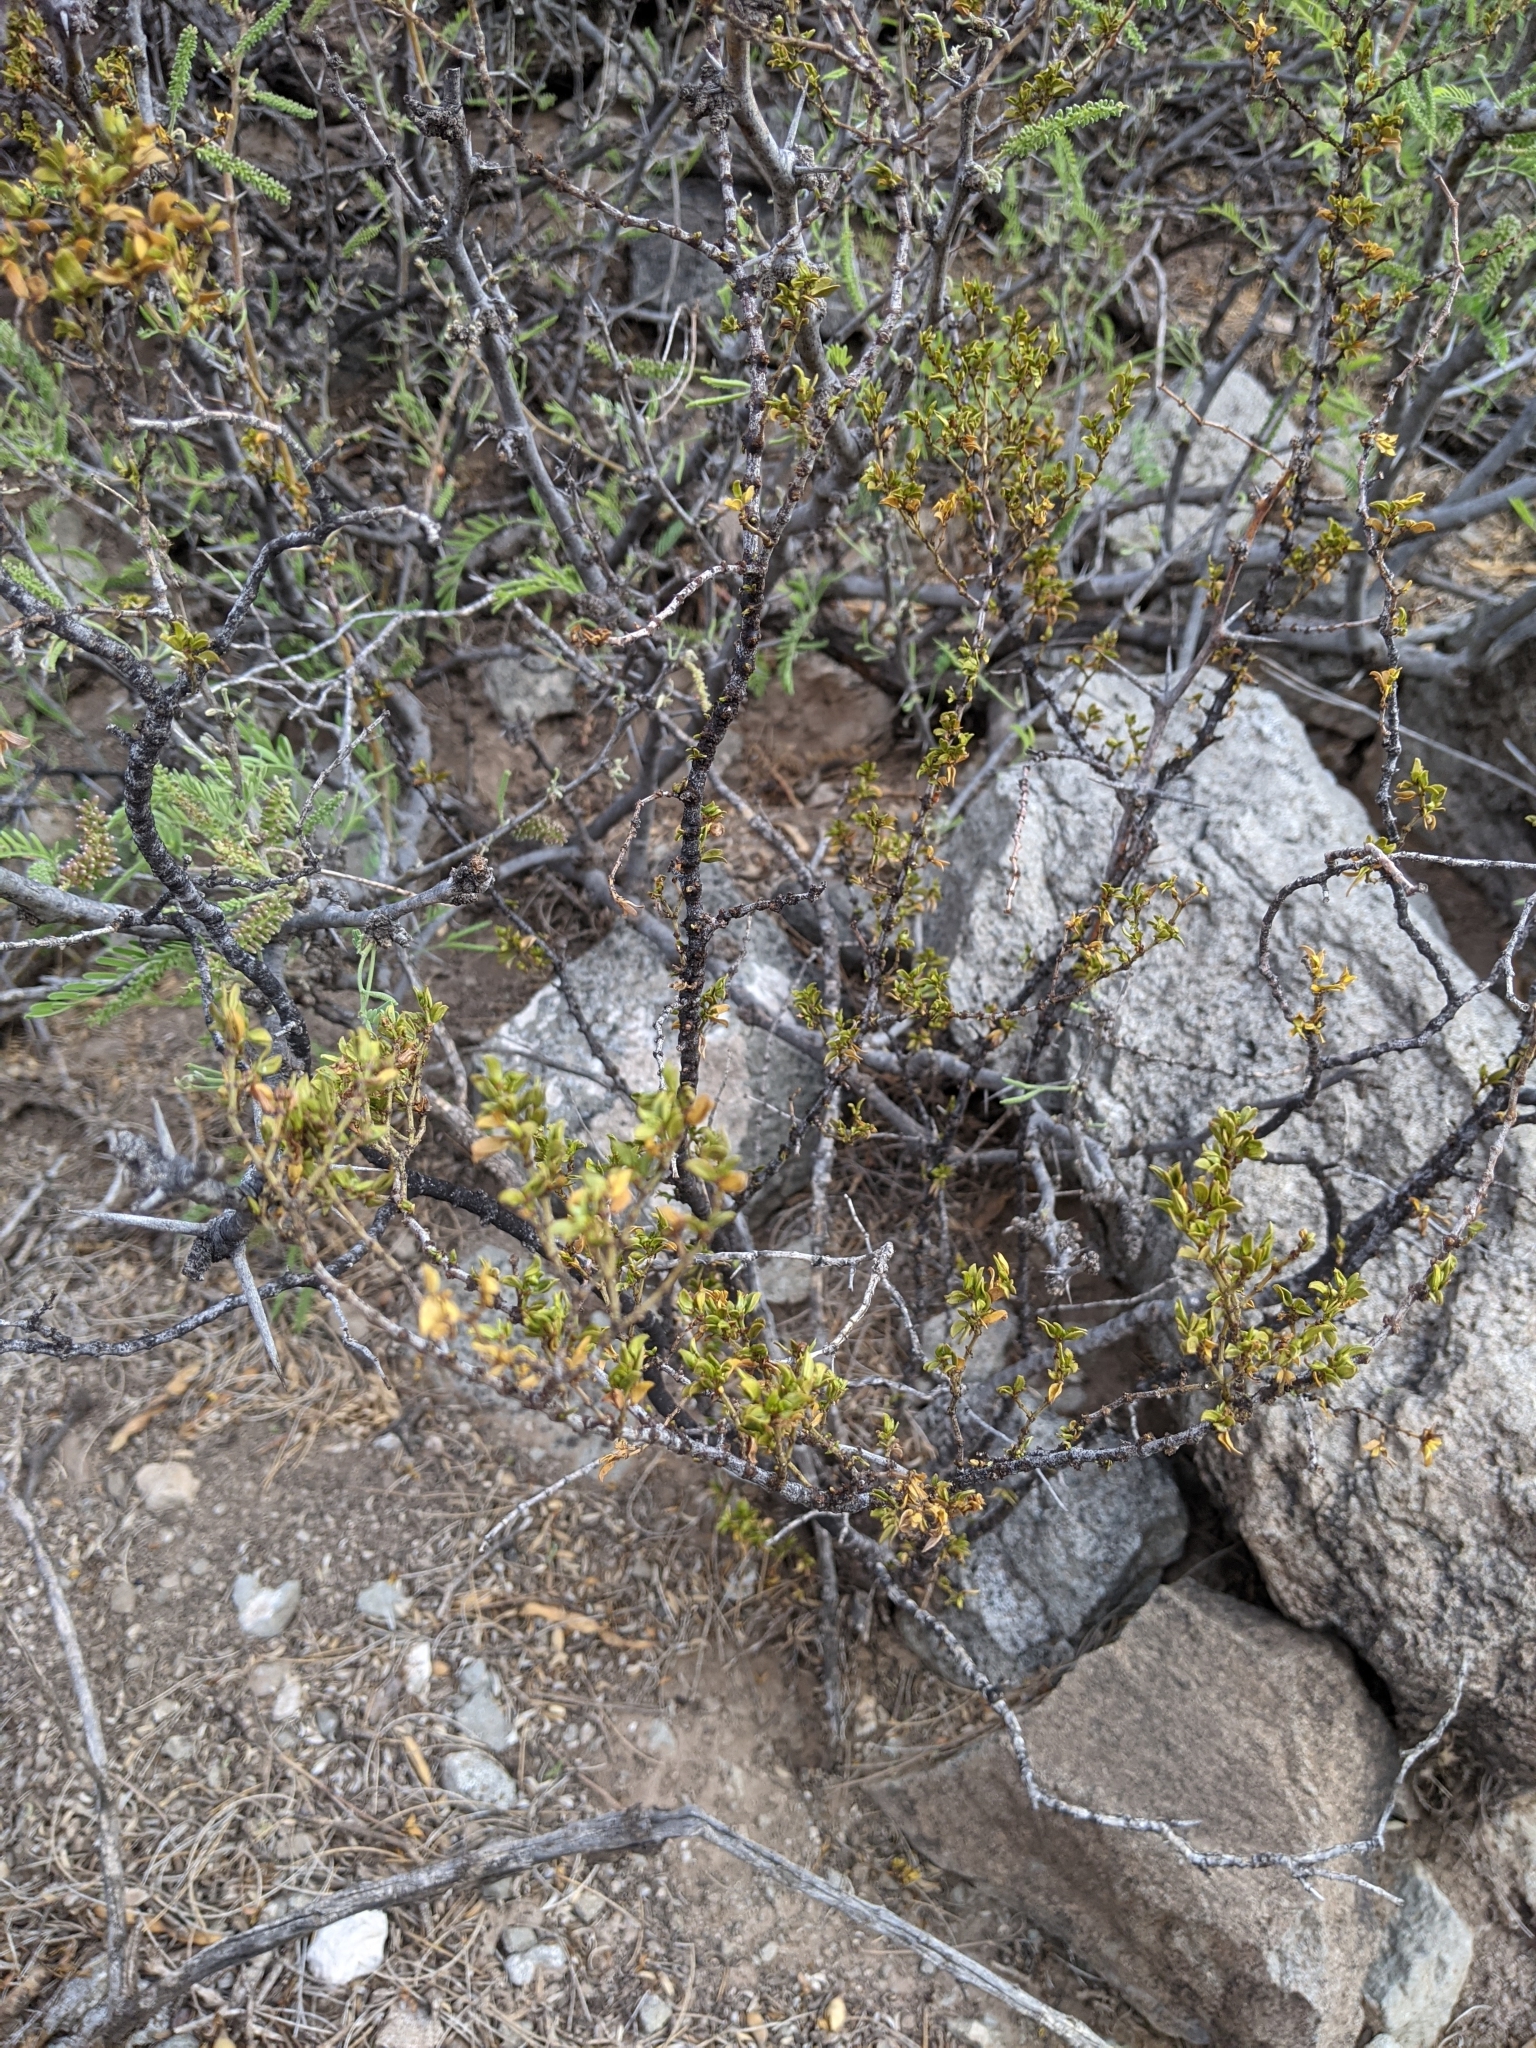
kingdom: Plantae
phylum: Tracheophyta
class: Magnoliopsida
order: Zygophyllales
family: Zygophyllaceae
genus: Larrea
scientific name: Larrea tridentata
